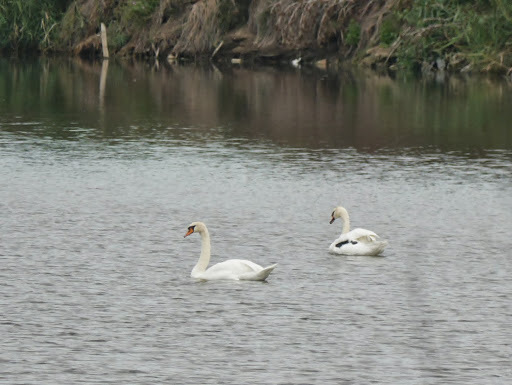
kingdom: Animalia
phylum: Chordata
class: Aves
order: Anseriformes
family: Anatidae
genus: Cygnus
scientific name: Cygnus olor
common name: Mute swan
